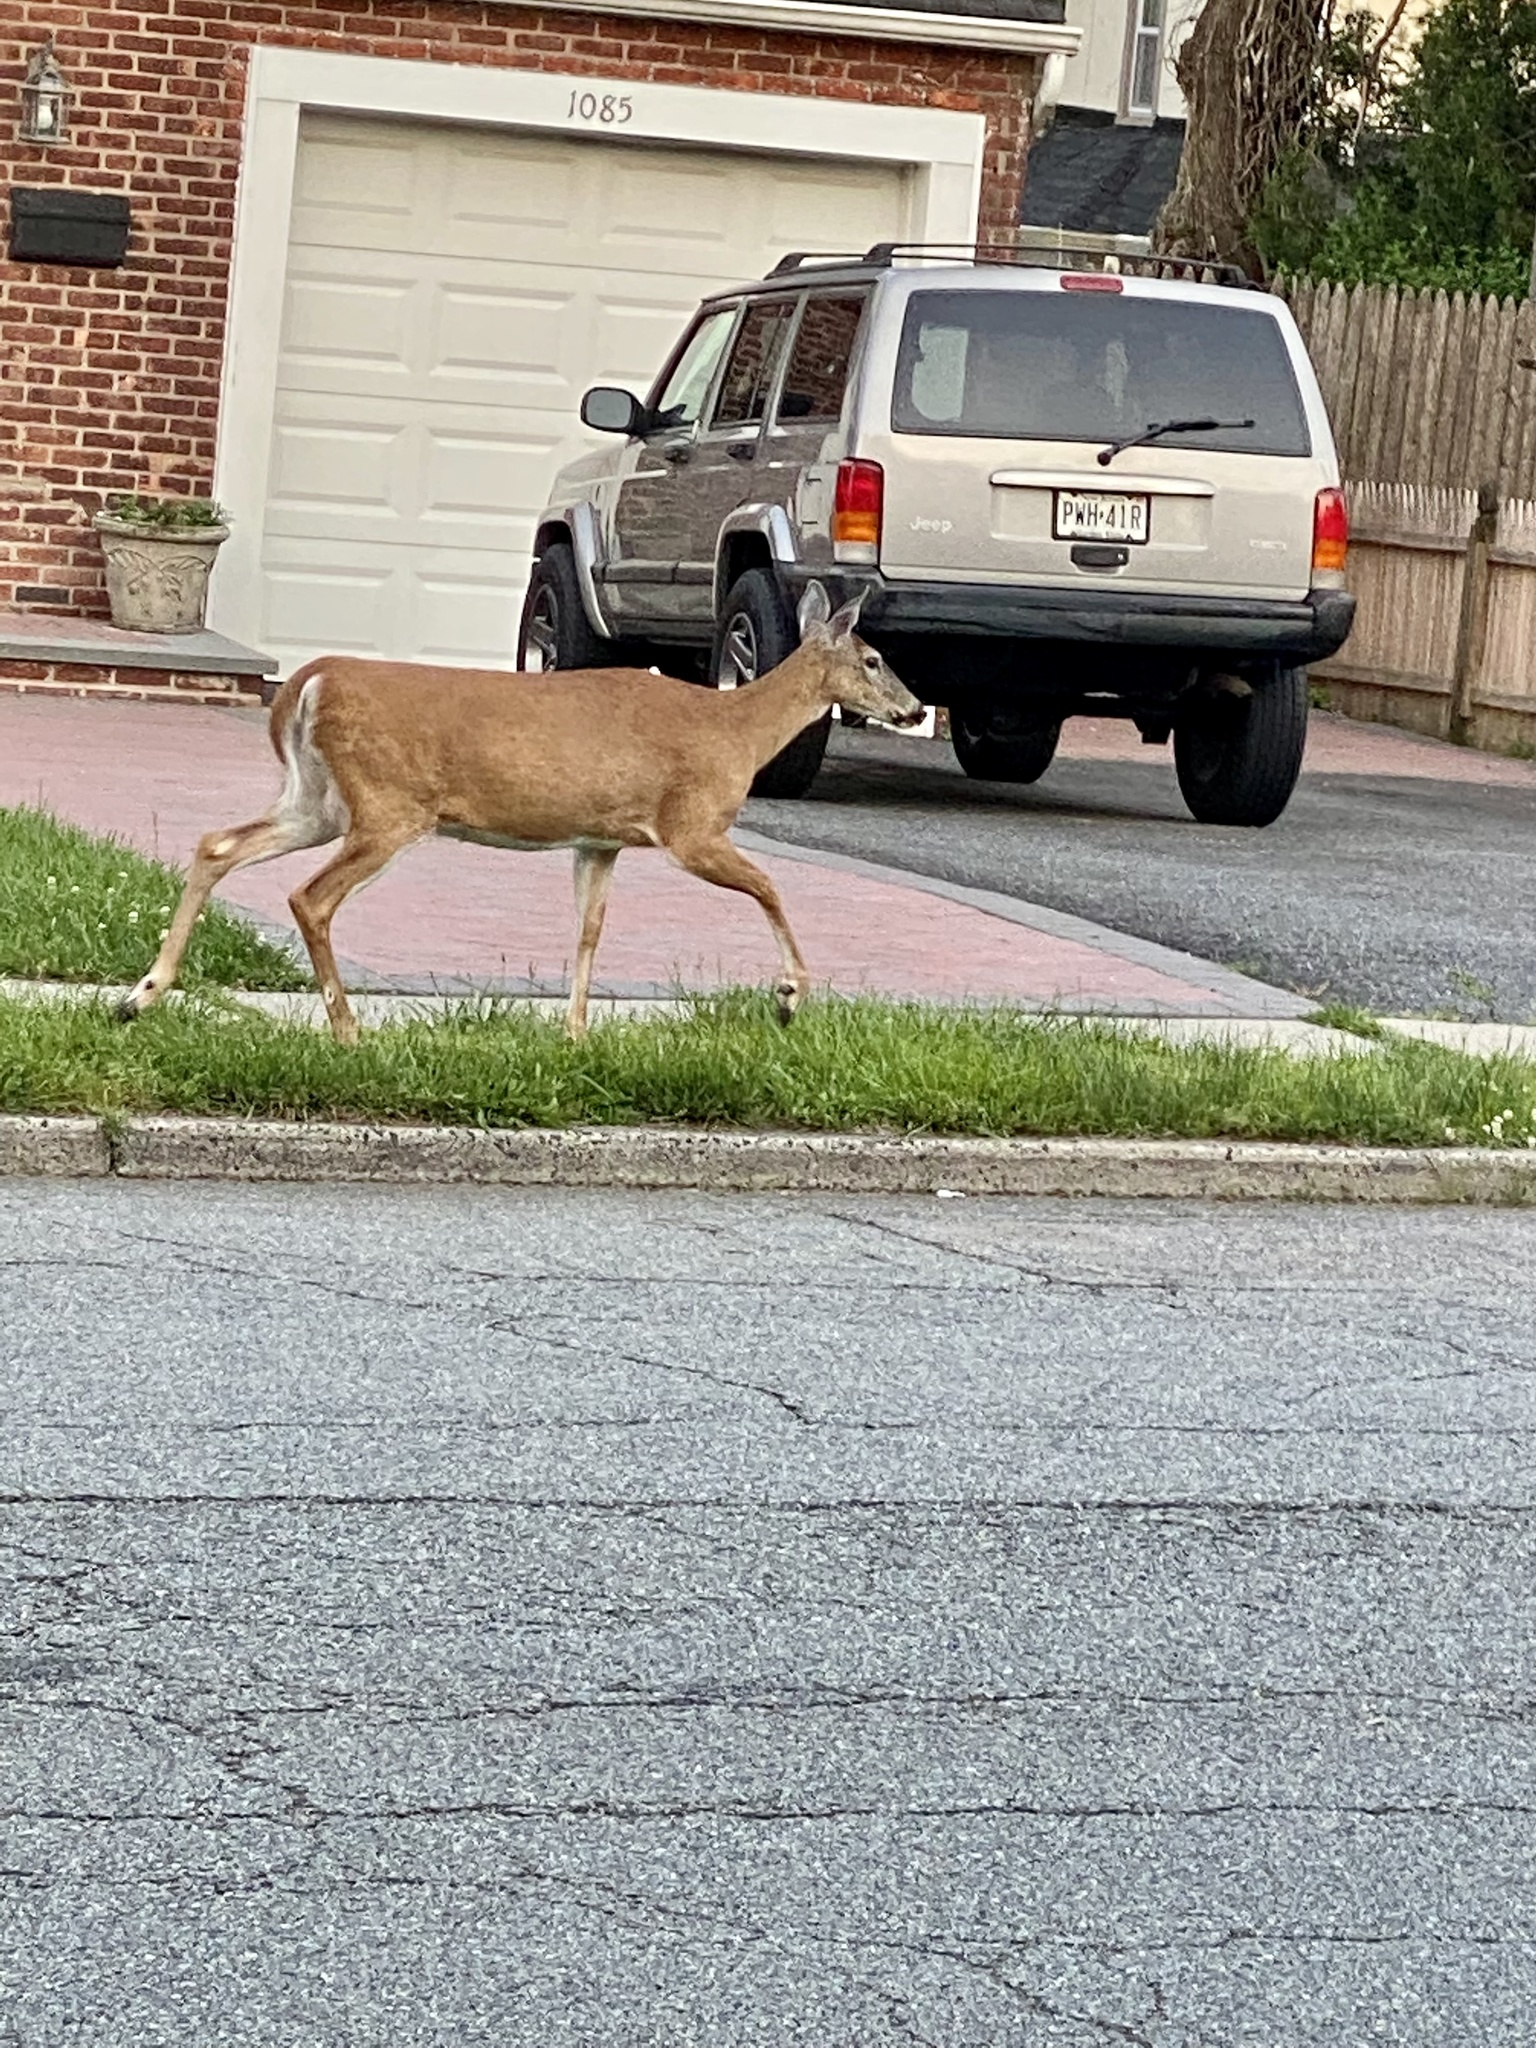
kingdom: Animalia
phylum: Chordata
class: Mammalia
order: Artiodactyla
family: Cervidae
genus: Odocoileus
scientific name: Odocoileus virginianus
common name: White-tailed deer
